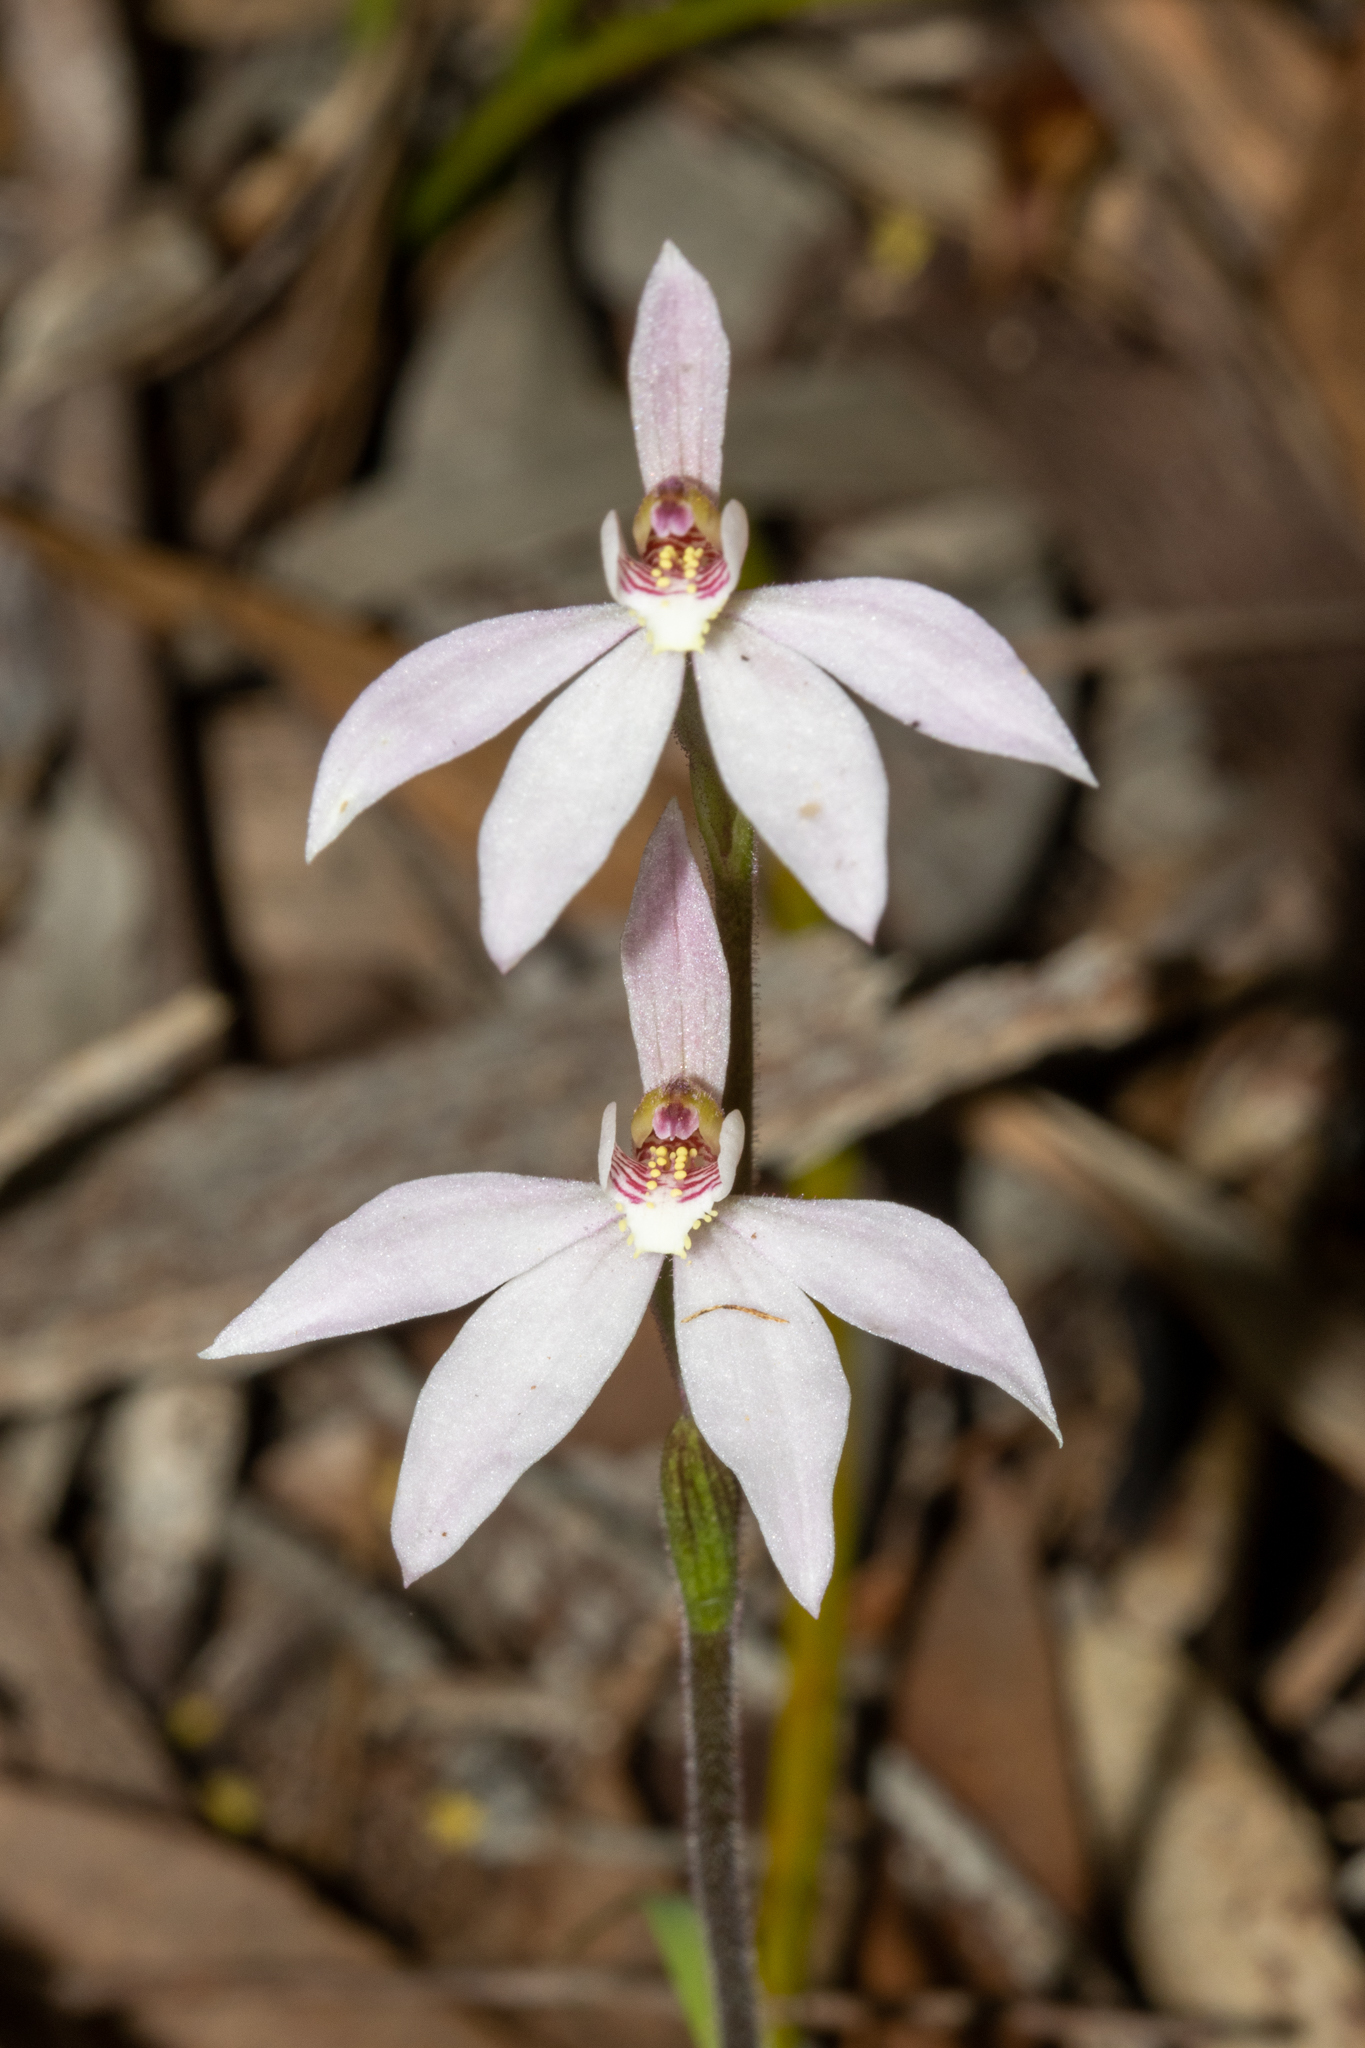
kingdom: Plantae
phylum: Tracheophyta
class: Liliopsida
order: Asparagales
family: Orchidaceae
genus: Caladenia
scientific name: Caladenia carnea
